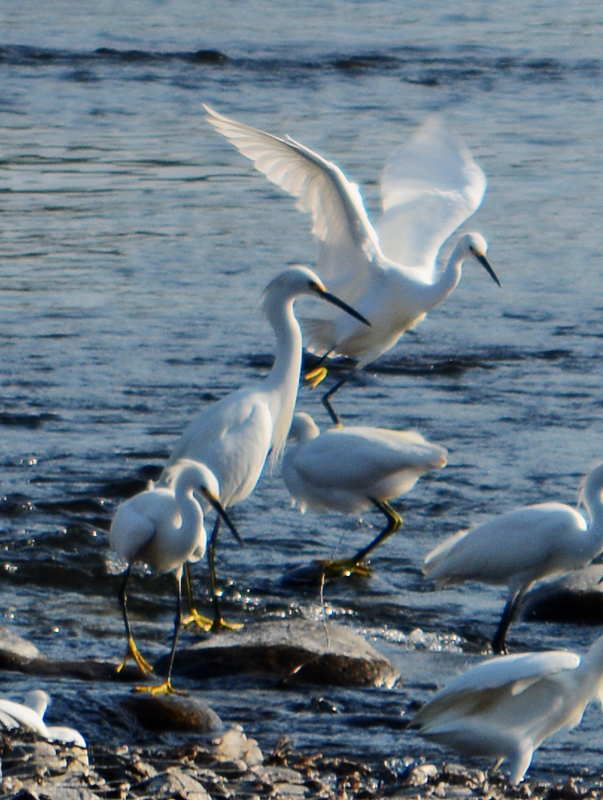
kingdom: Animalia
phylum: Chordata
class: Aves
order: Pelecaniformes
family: Ardeidae
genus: Egretta
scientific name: Egretta thula
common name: Snowy egret
